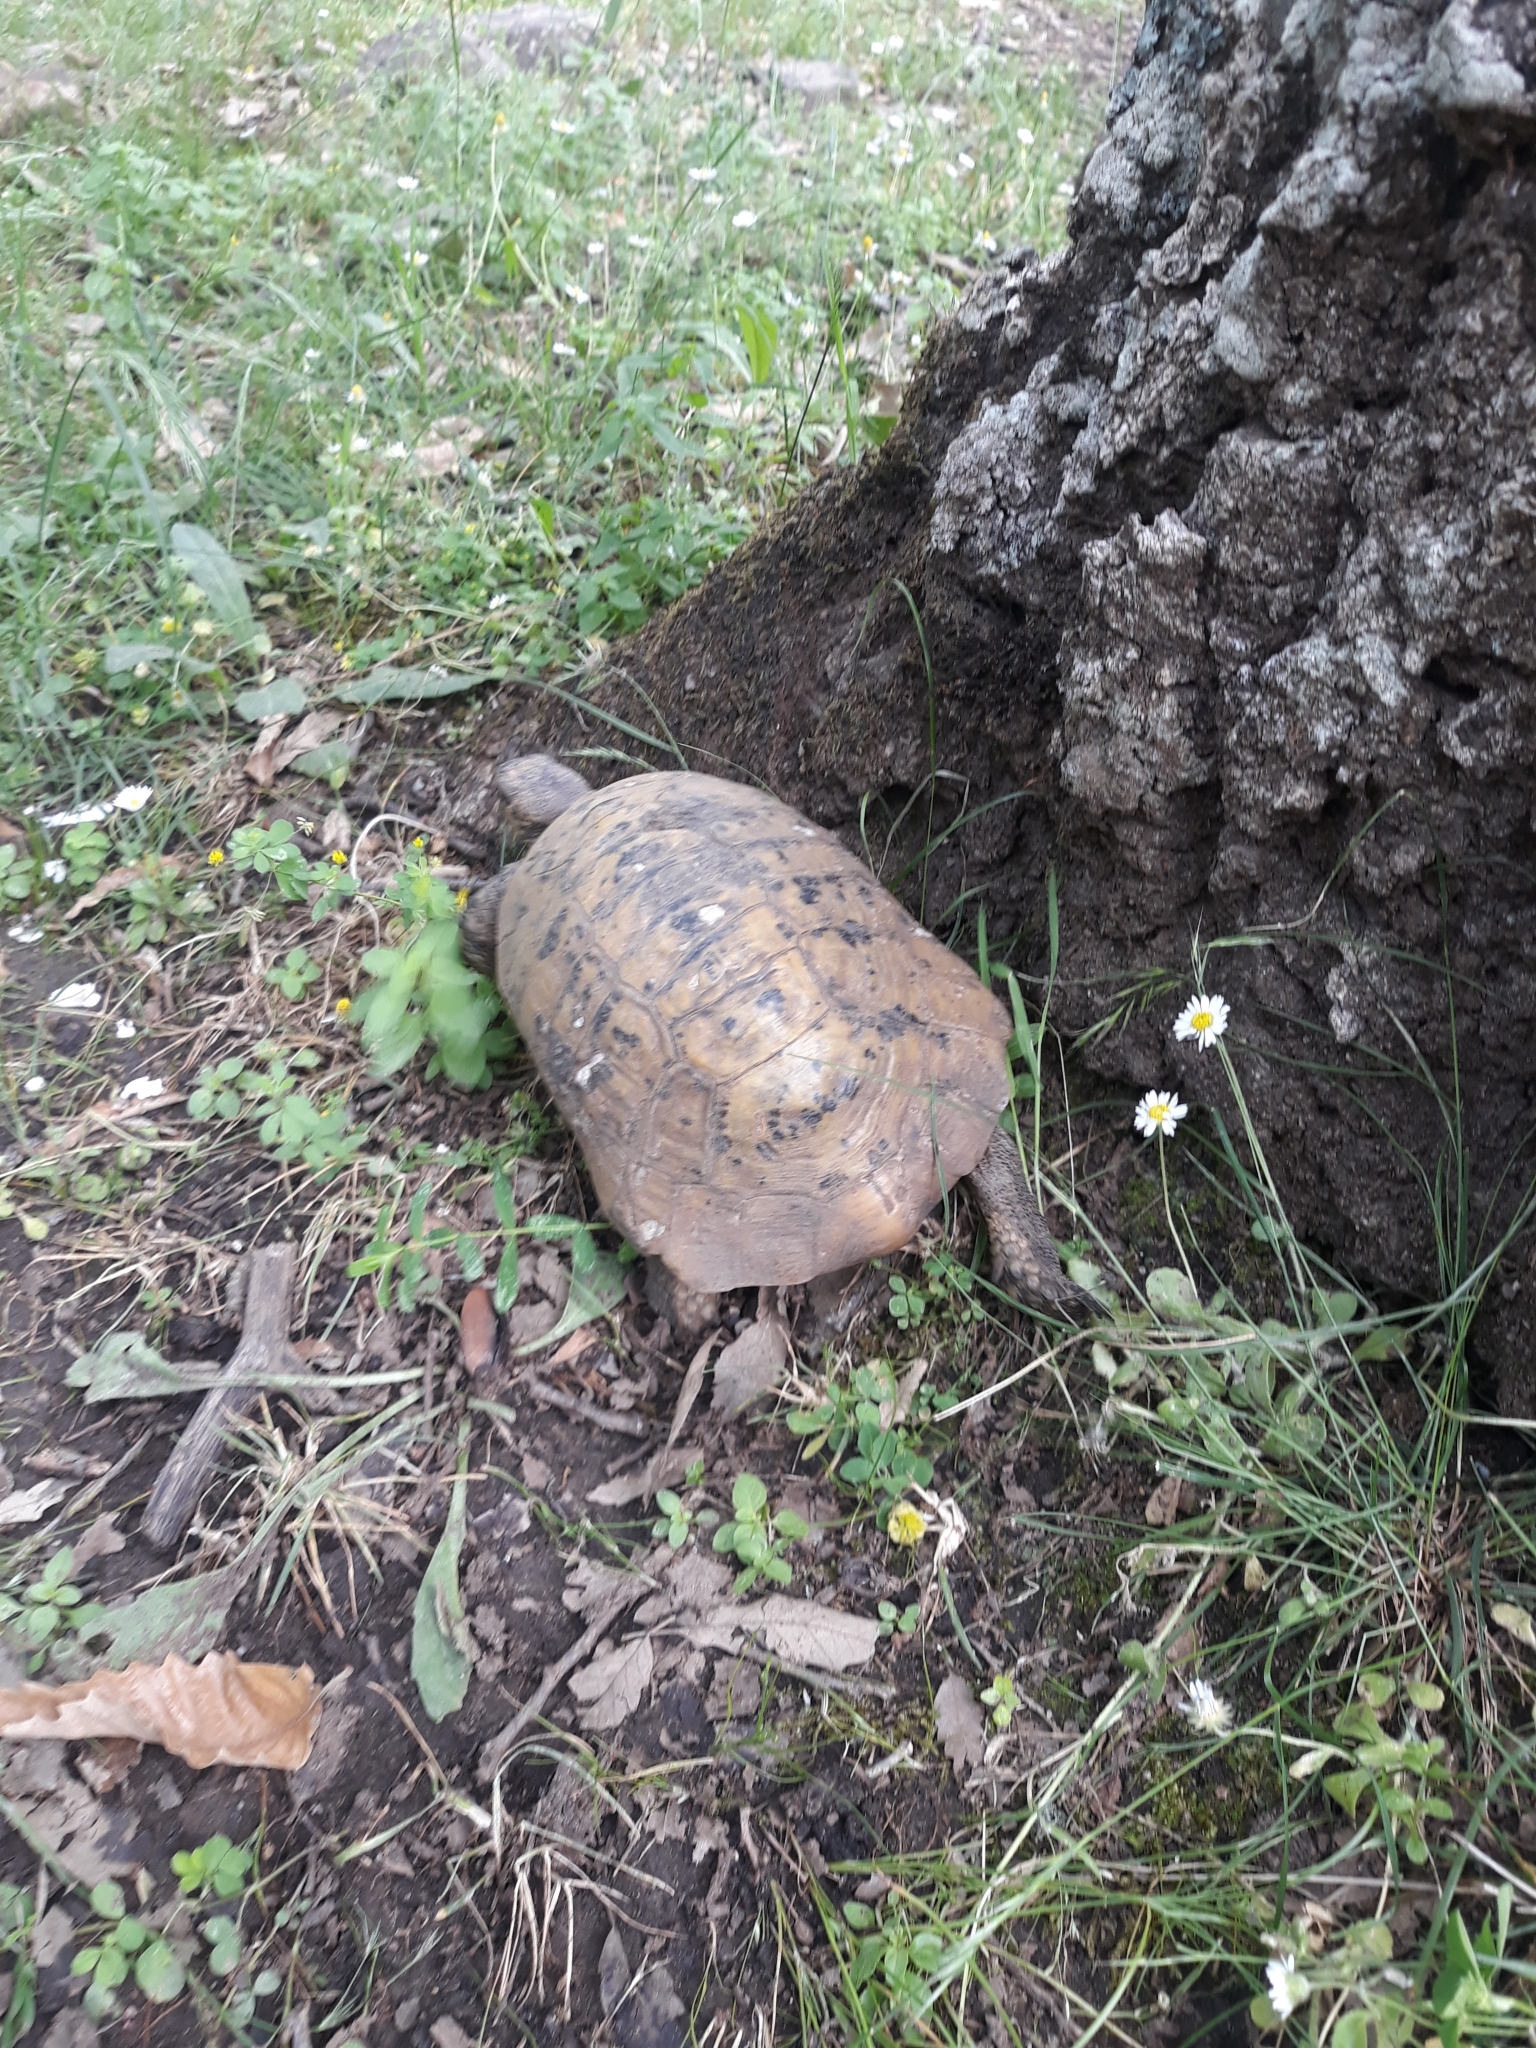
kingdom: Animalia
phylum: Chordata
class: Testudines
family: Testudinidae
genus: Testudo
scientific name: Testudo graeca
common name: Common tortoise
